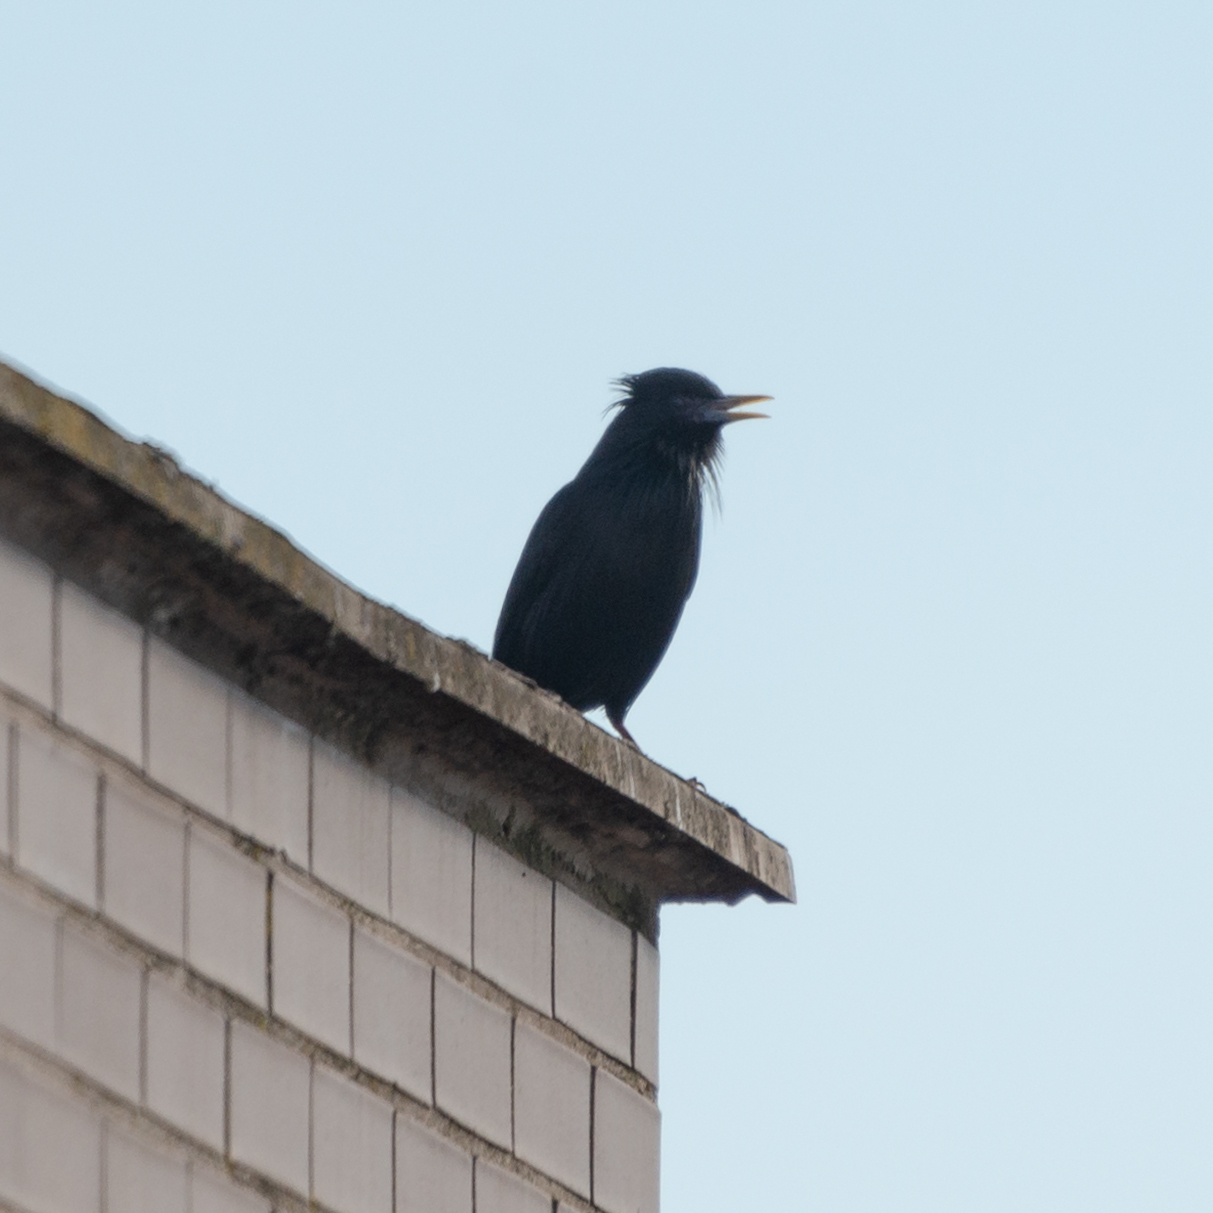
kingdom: Animalia
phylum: Chordata
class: Aves
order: Passeriformes
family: Sturnidae
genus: Sturnus
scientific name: Sturnus unicolor
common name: Spotless starling
